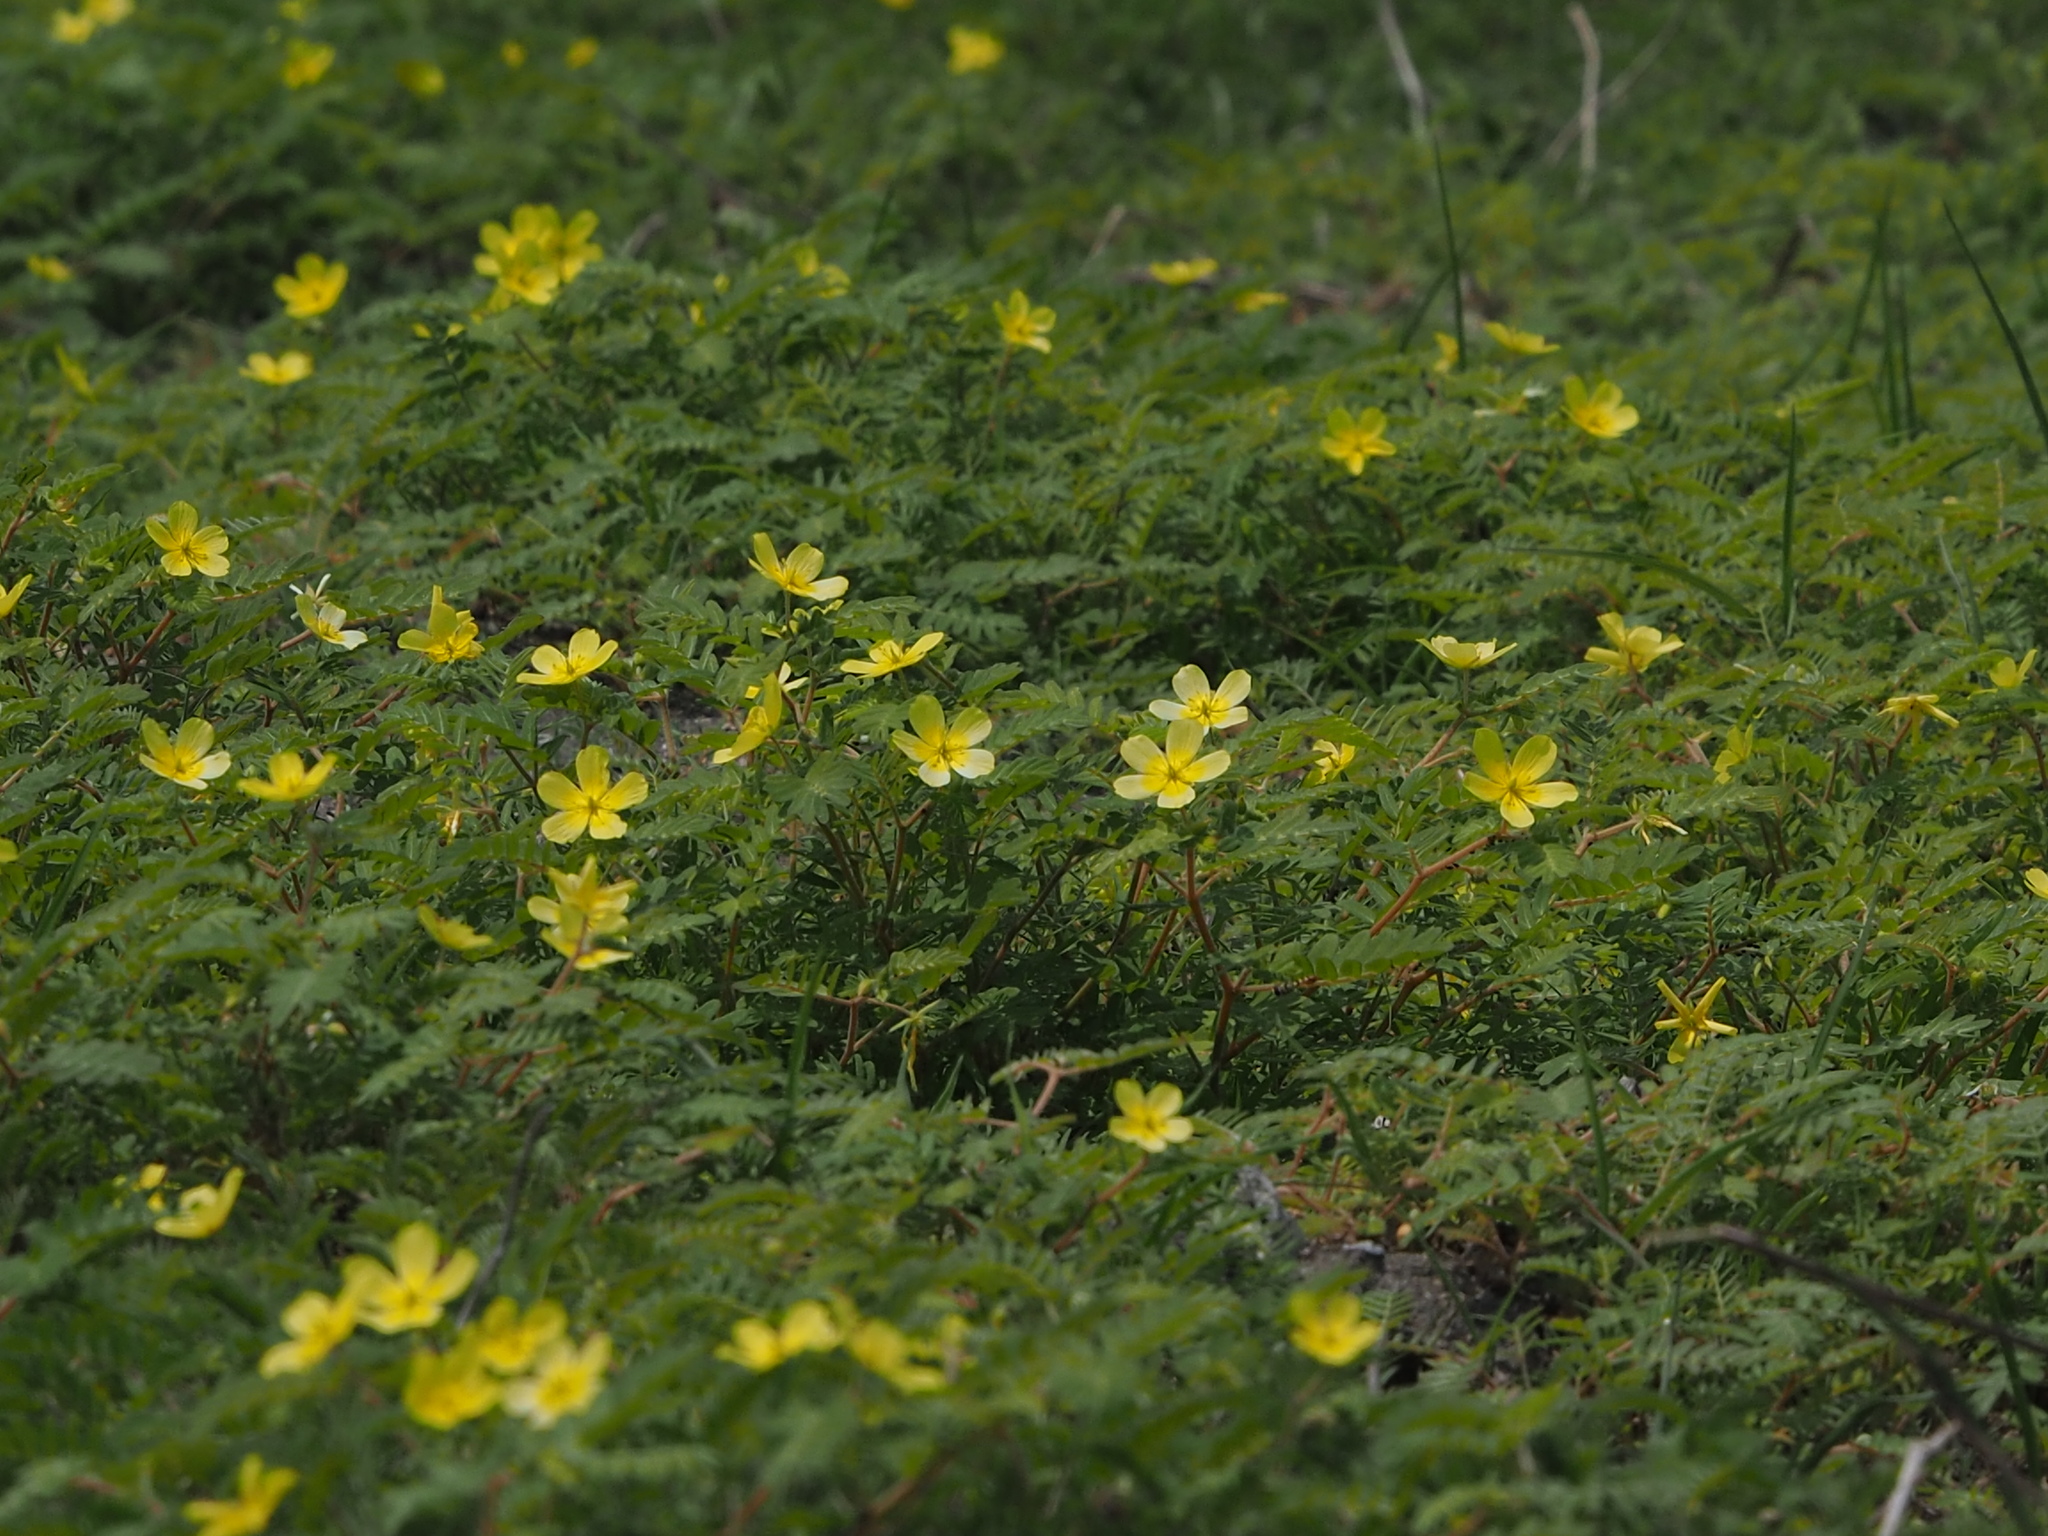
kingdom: Plantae
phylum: Tracheophyta
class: Magnoliopsida
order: Zygophyllales
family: Zygophyllaceae
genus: Tribulus
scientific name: Tribulus cistoides
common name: Jamaican feverplant
